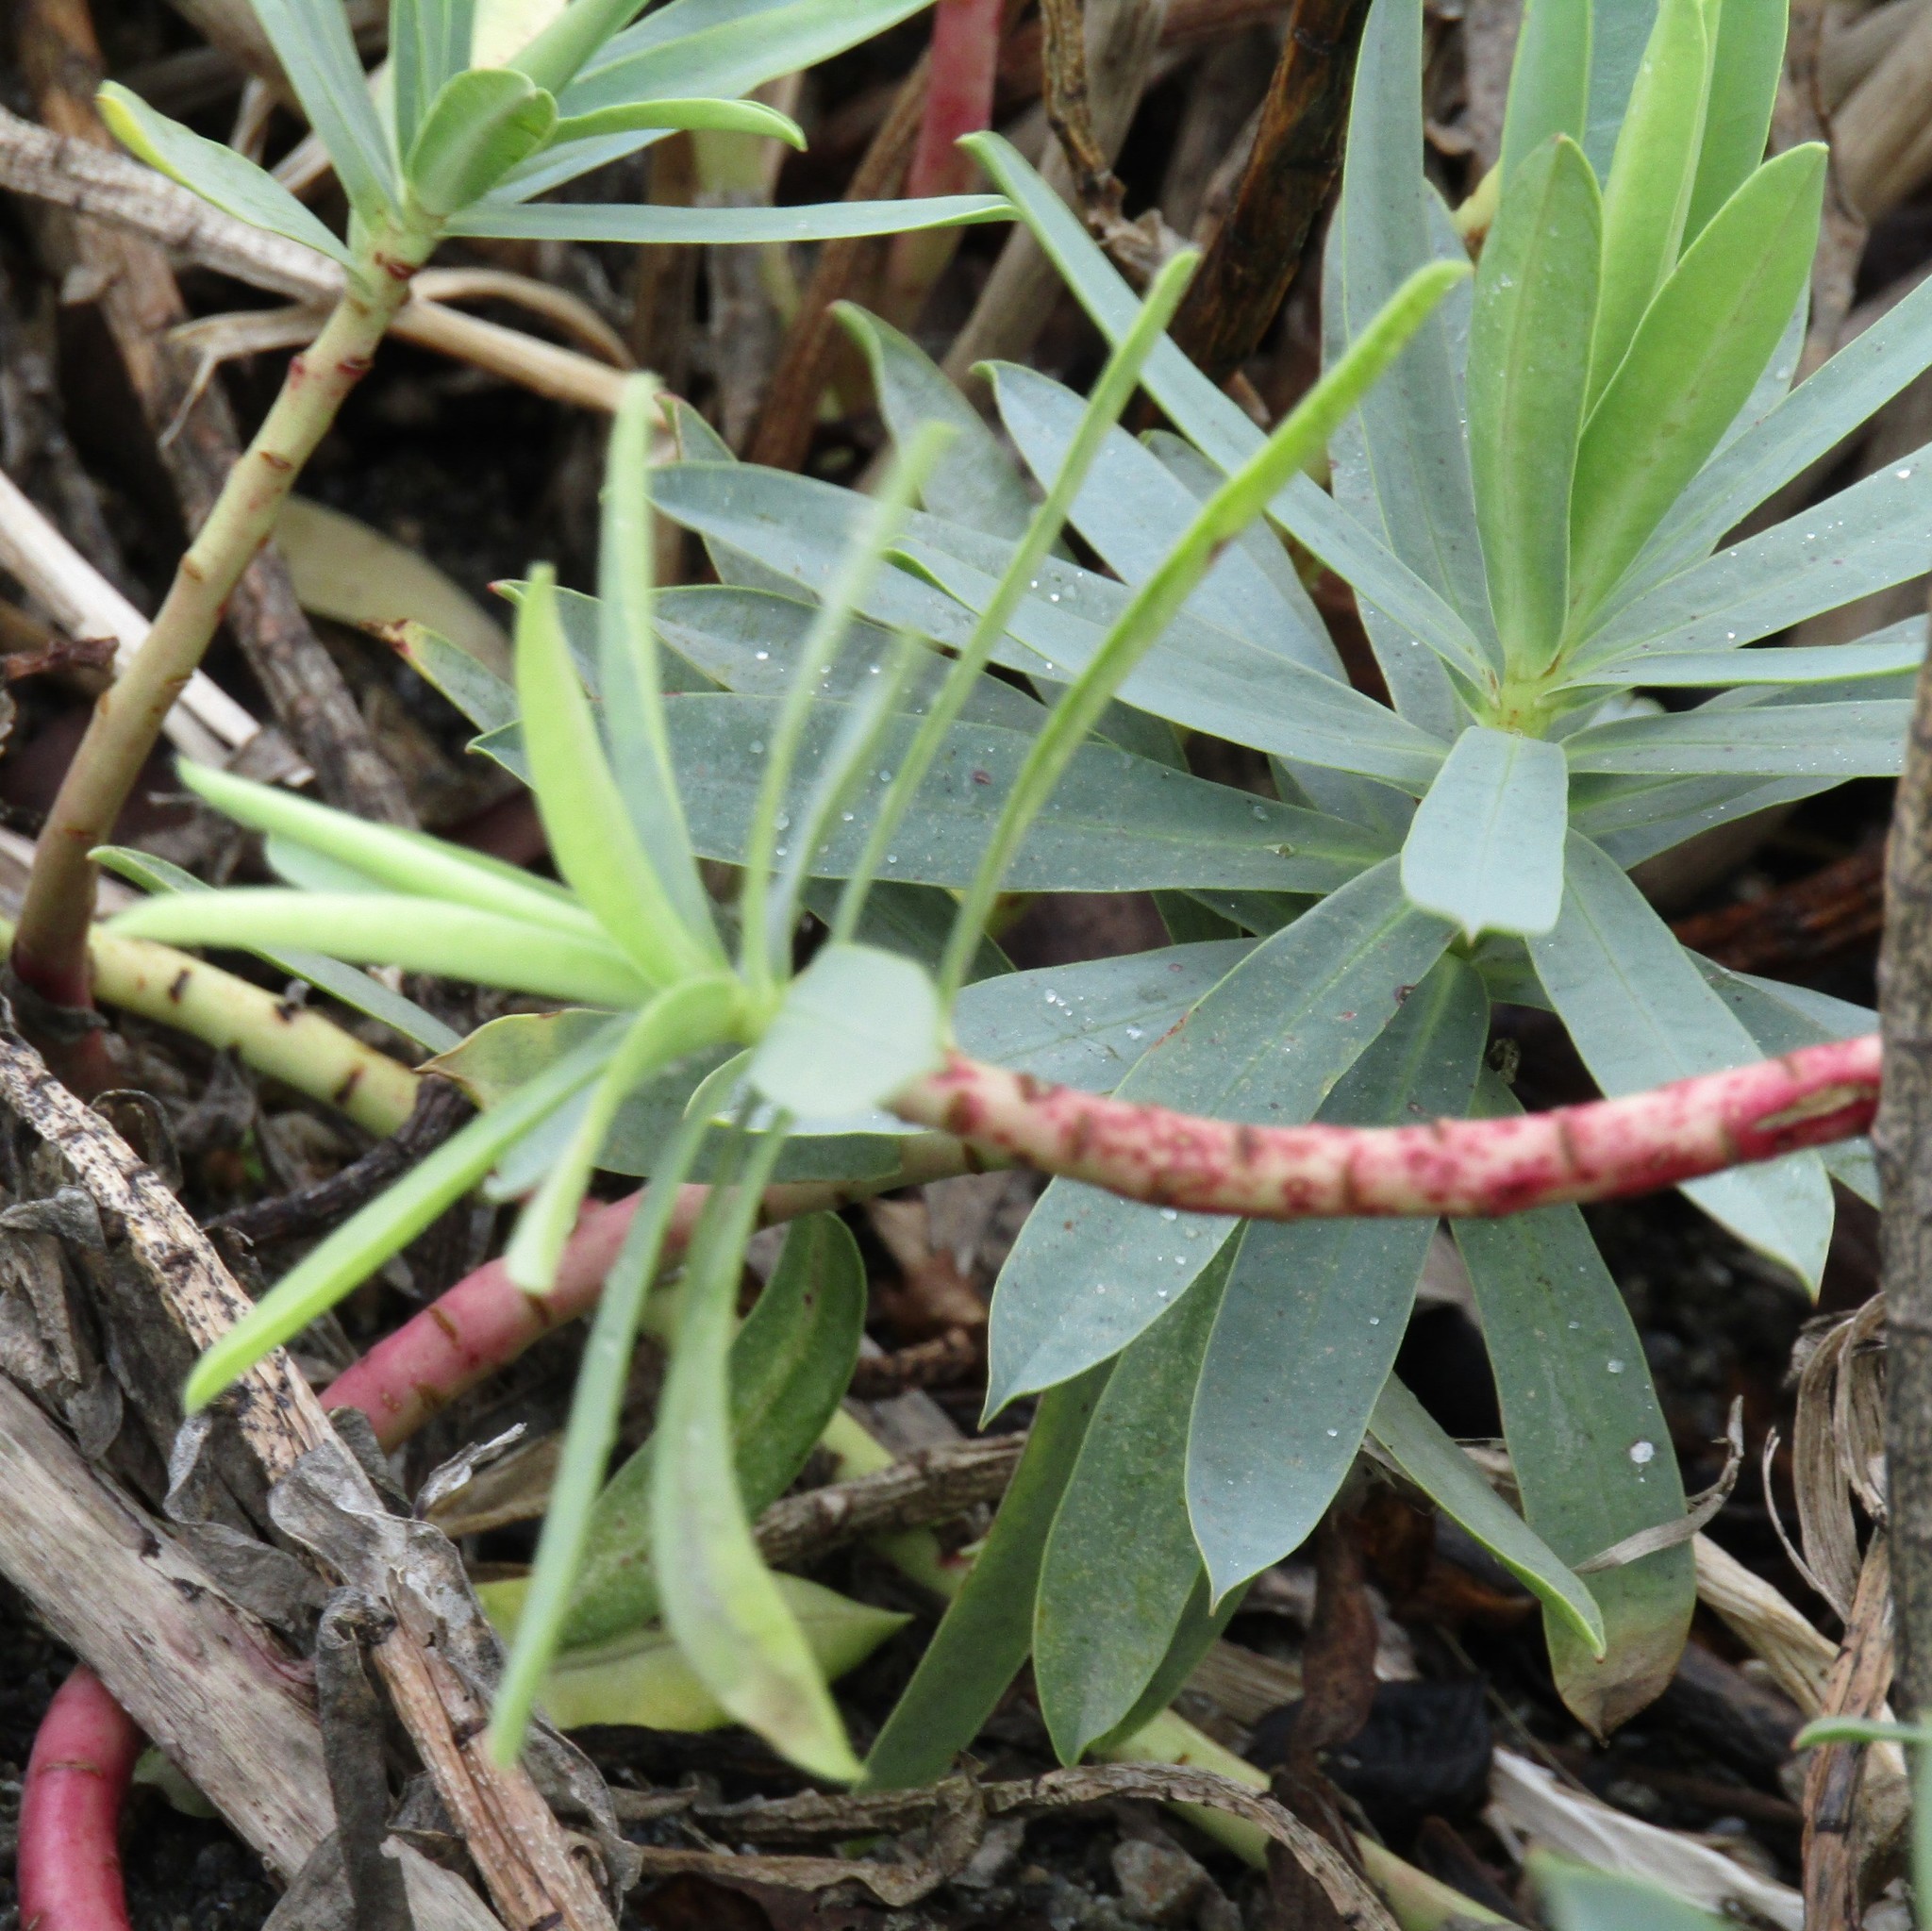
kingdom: Plantae
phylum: Tracheophyta
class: Magnoliopsida
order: Malpighiales
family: Euphorbiaceae
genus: Euphorbia
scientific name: Euphorbia glauca
